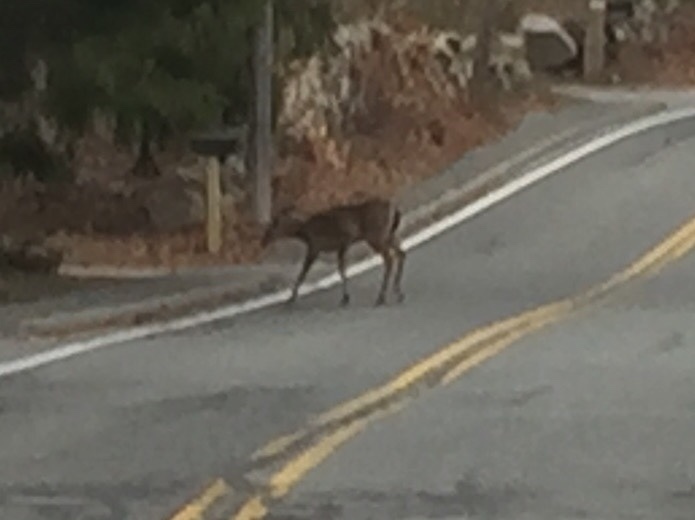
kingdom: Animalia
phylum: Chordata
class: Mammalia
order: Artiodactyla
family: Cervidae
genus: Odocoileus
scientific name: Odocoileus virginianus
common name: White-tailed deer
